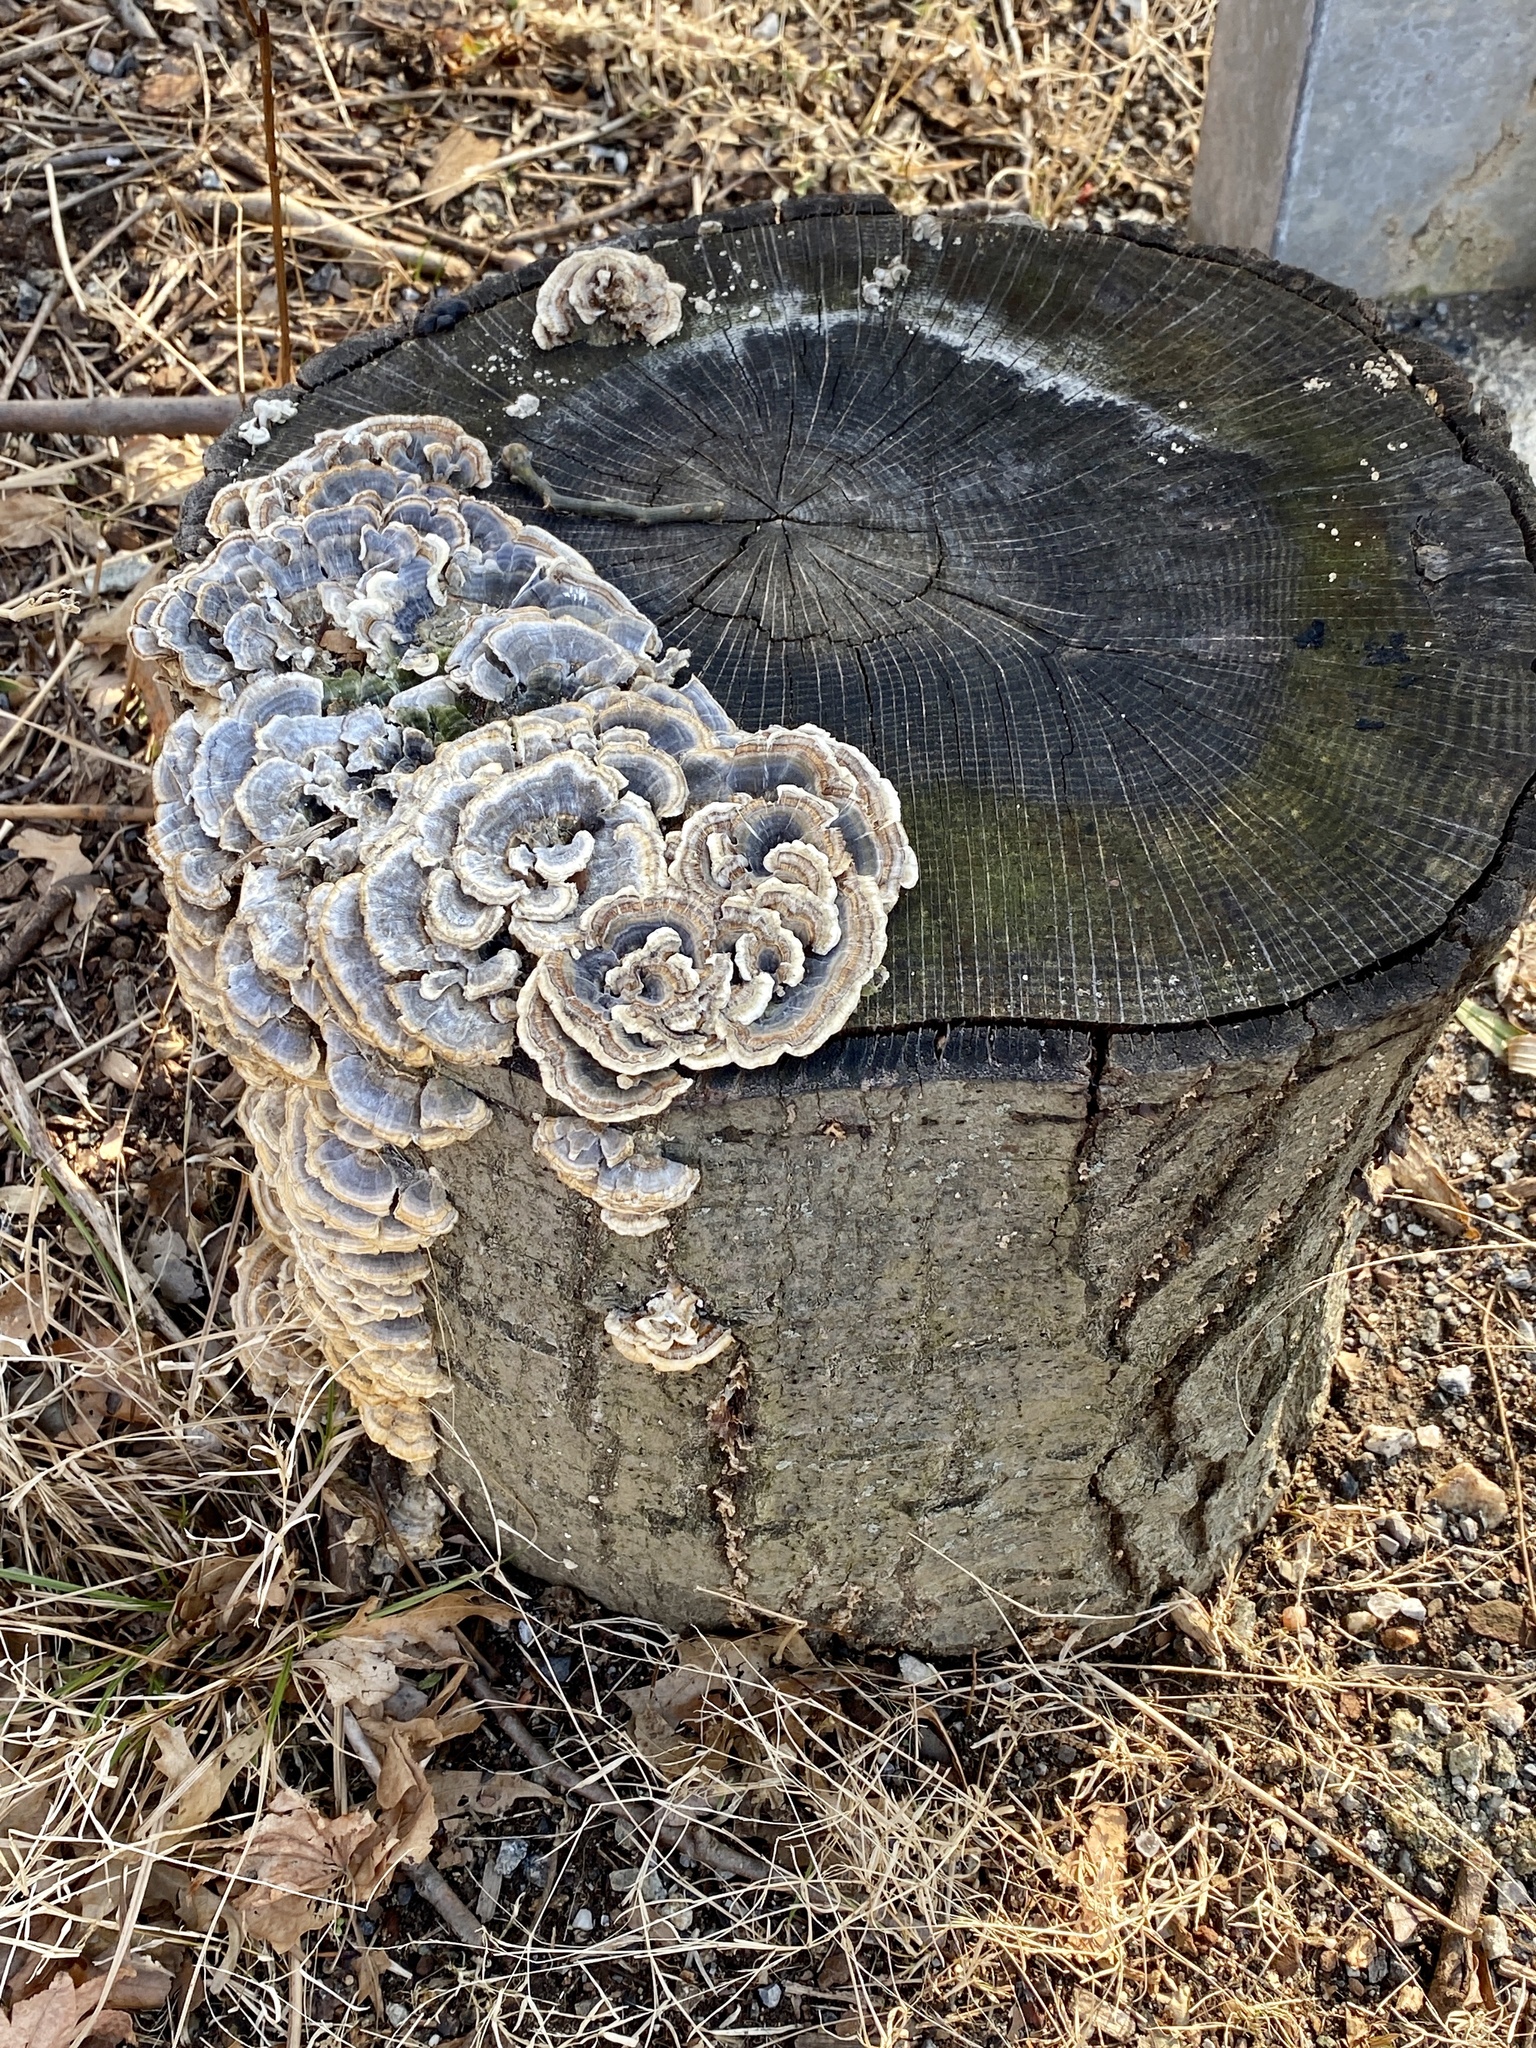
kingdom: Fungi
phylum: Basidiomycota
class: Agaricomycetes
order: Polyporales
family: Polyporaceae
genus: Trametes
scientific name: Trametes versicolor
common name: Turkeytail
